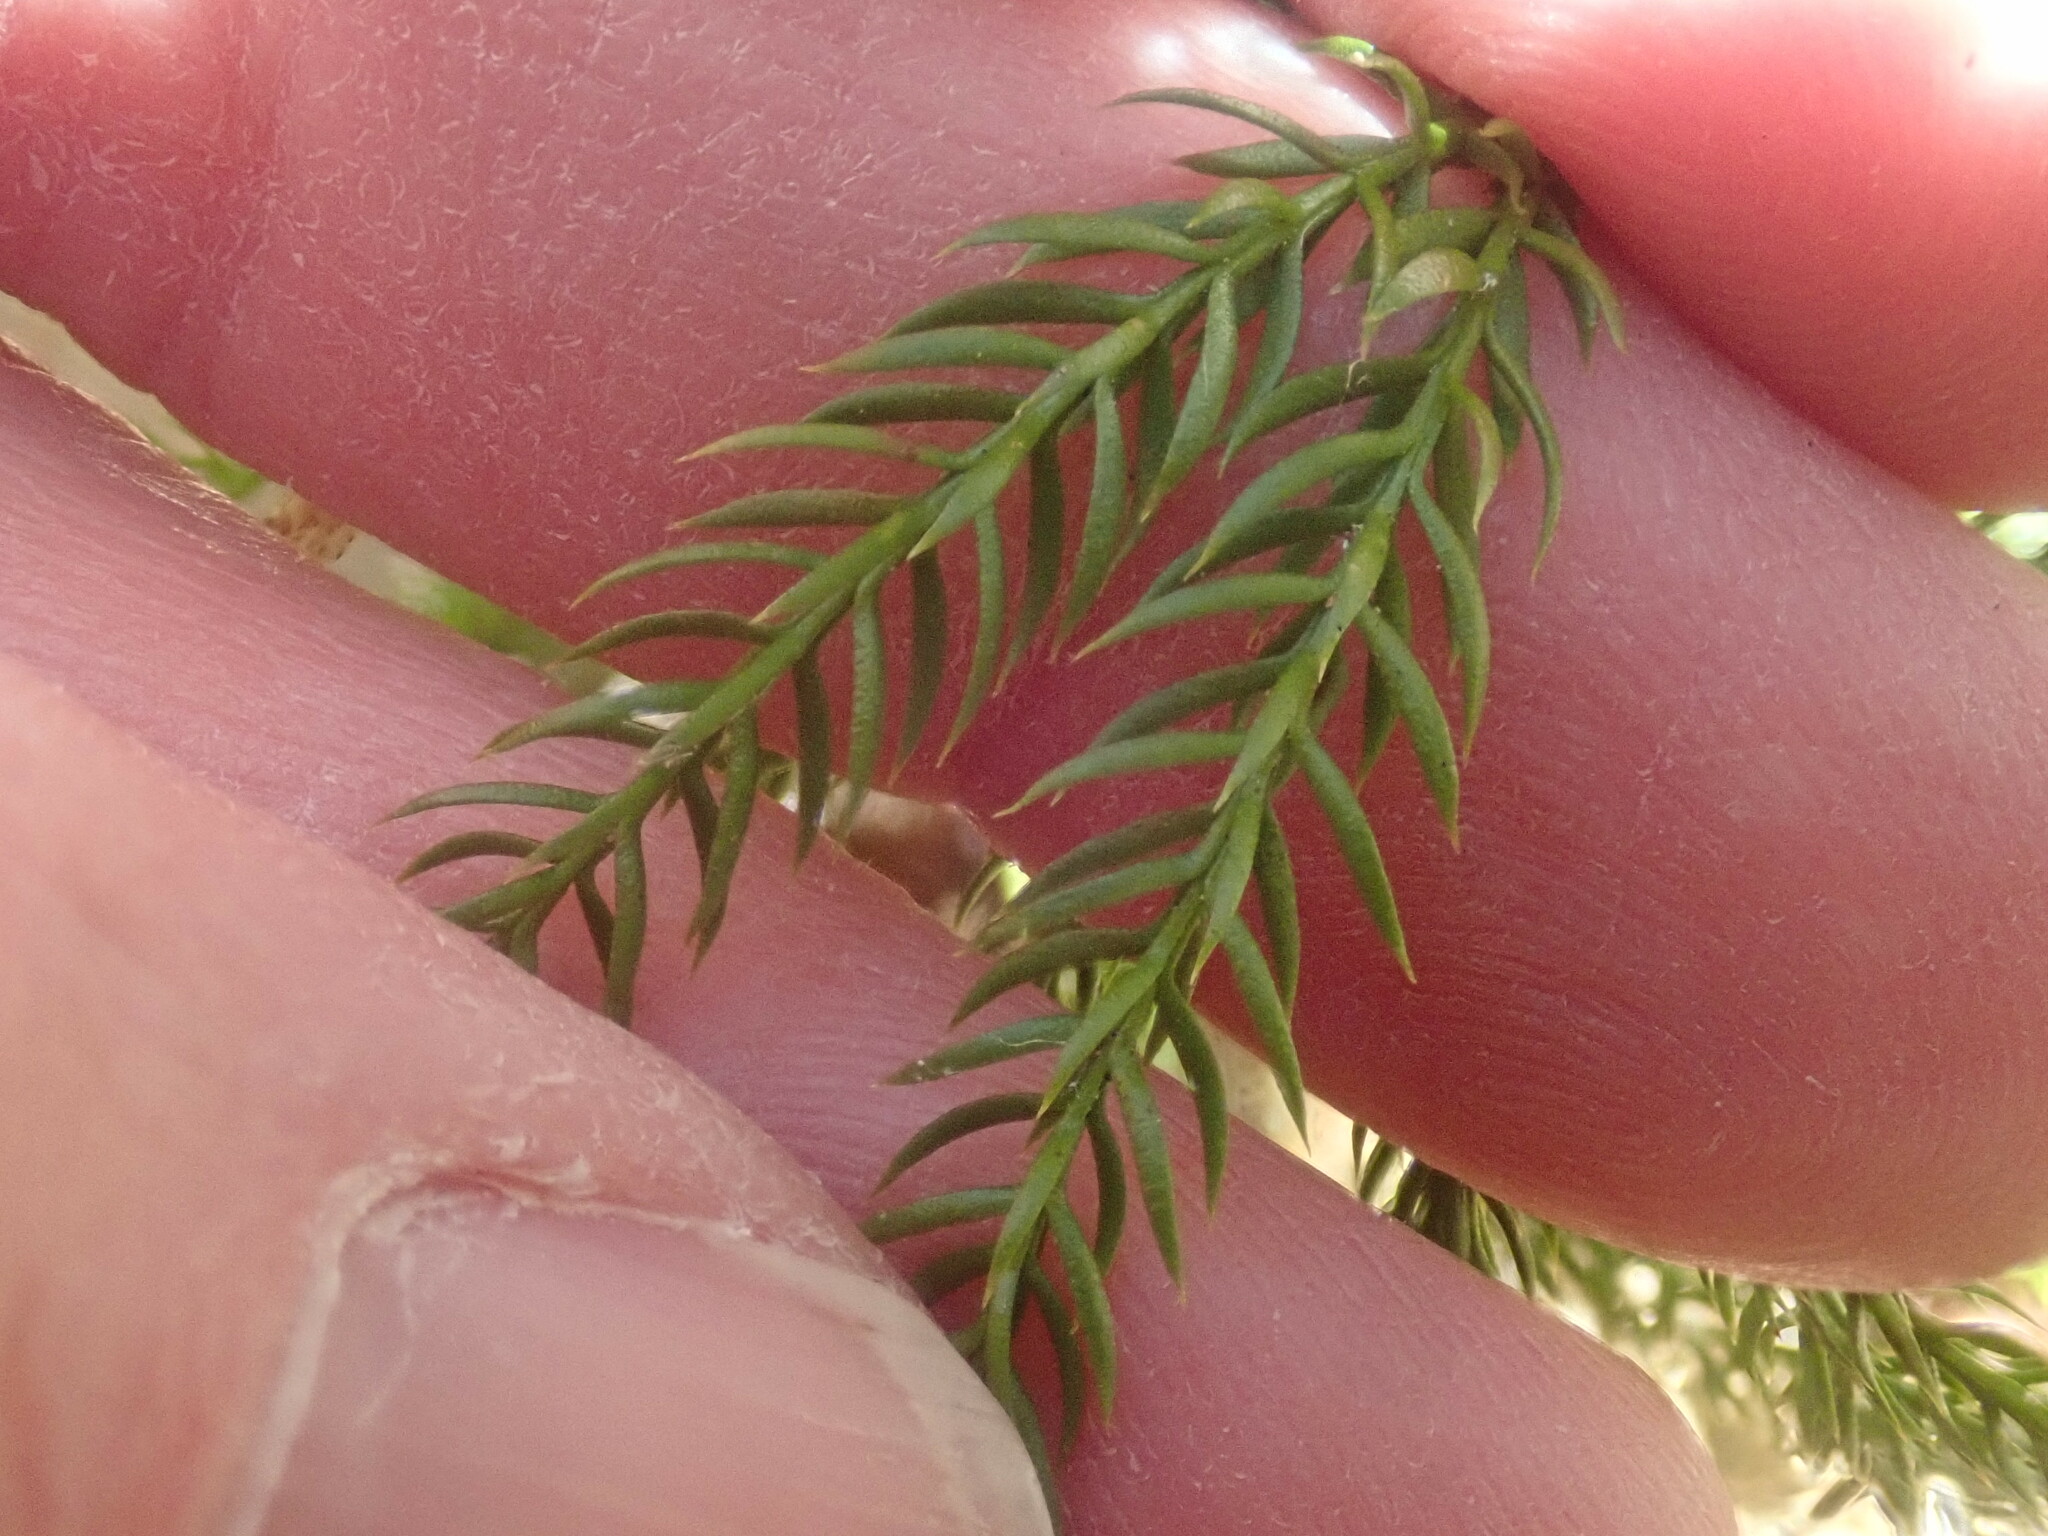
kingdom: Plantae
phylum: Tracheophyta
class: Lycopodiopsida
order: Lycopodiales
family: Lycopodiaceae
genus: Dendrolycopodium
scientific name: Dendrolycopodium hickeyi
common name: Hickey's clubmoss
